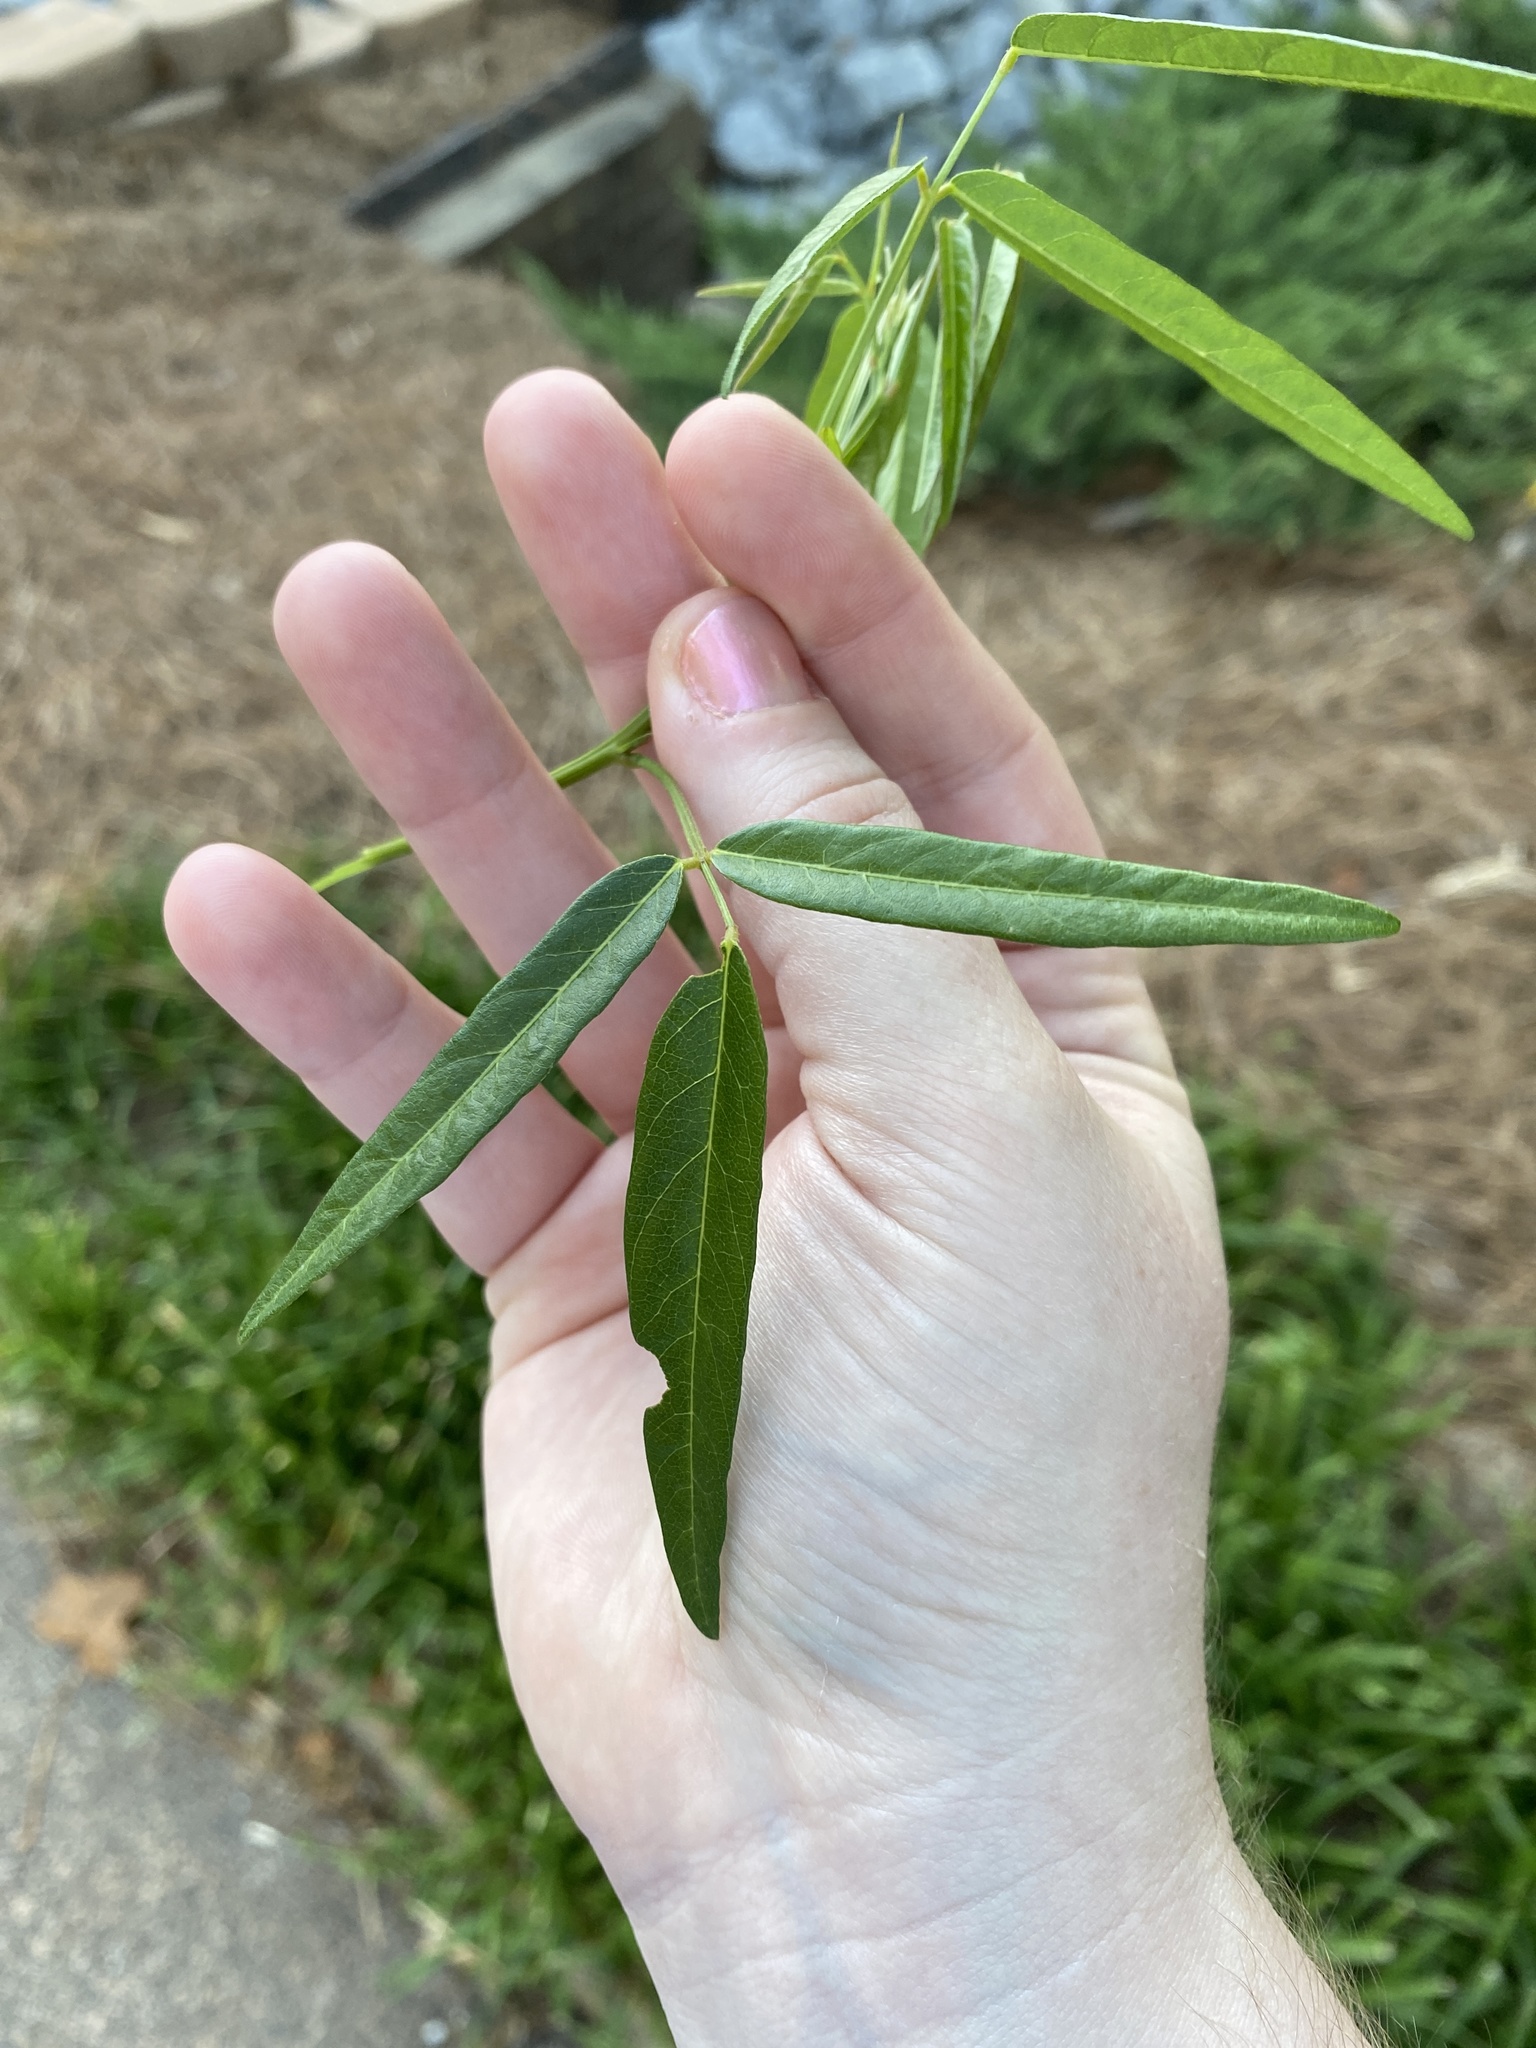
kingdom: Plantae
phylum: Tracheophyta
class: Magnoliopsida
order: Fabales
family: Fabaceae
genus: Desmodium
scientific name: Desmodium paniculatum
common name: Panicled tick-clover
